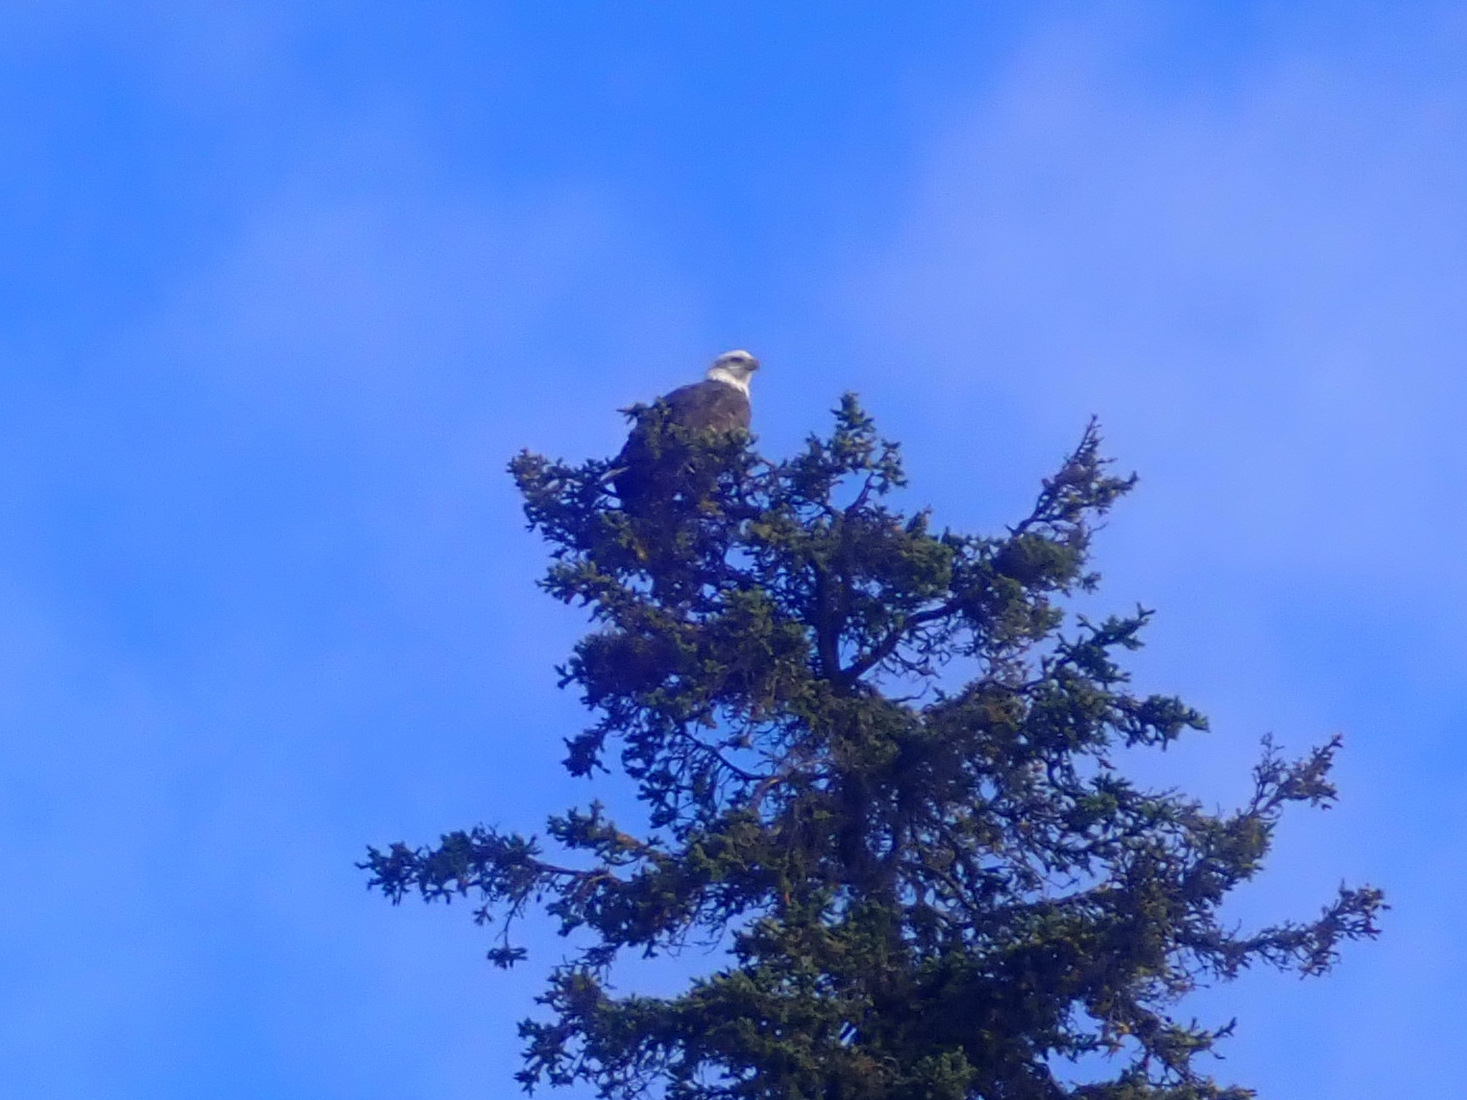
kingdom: Animalia
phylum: Chordata
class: Aves
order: Accipitriformes
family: Accipitridae
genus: Haliaeetus
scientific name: Haliaeetus leucocephalus
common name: Bald eagle
